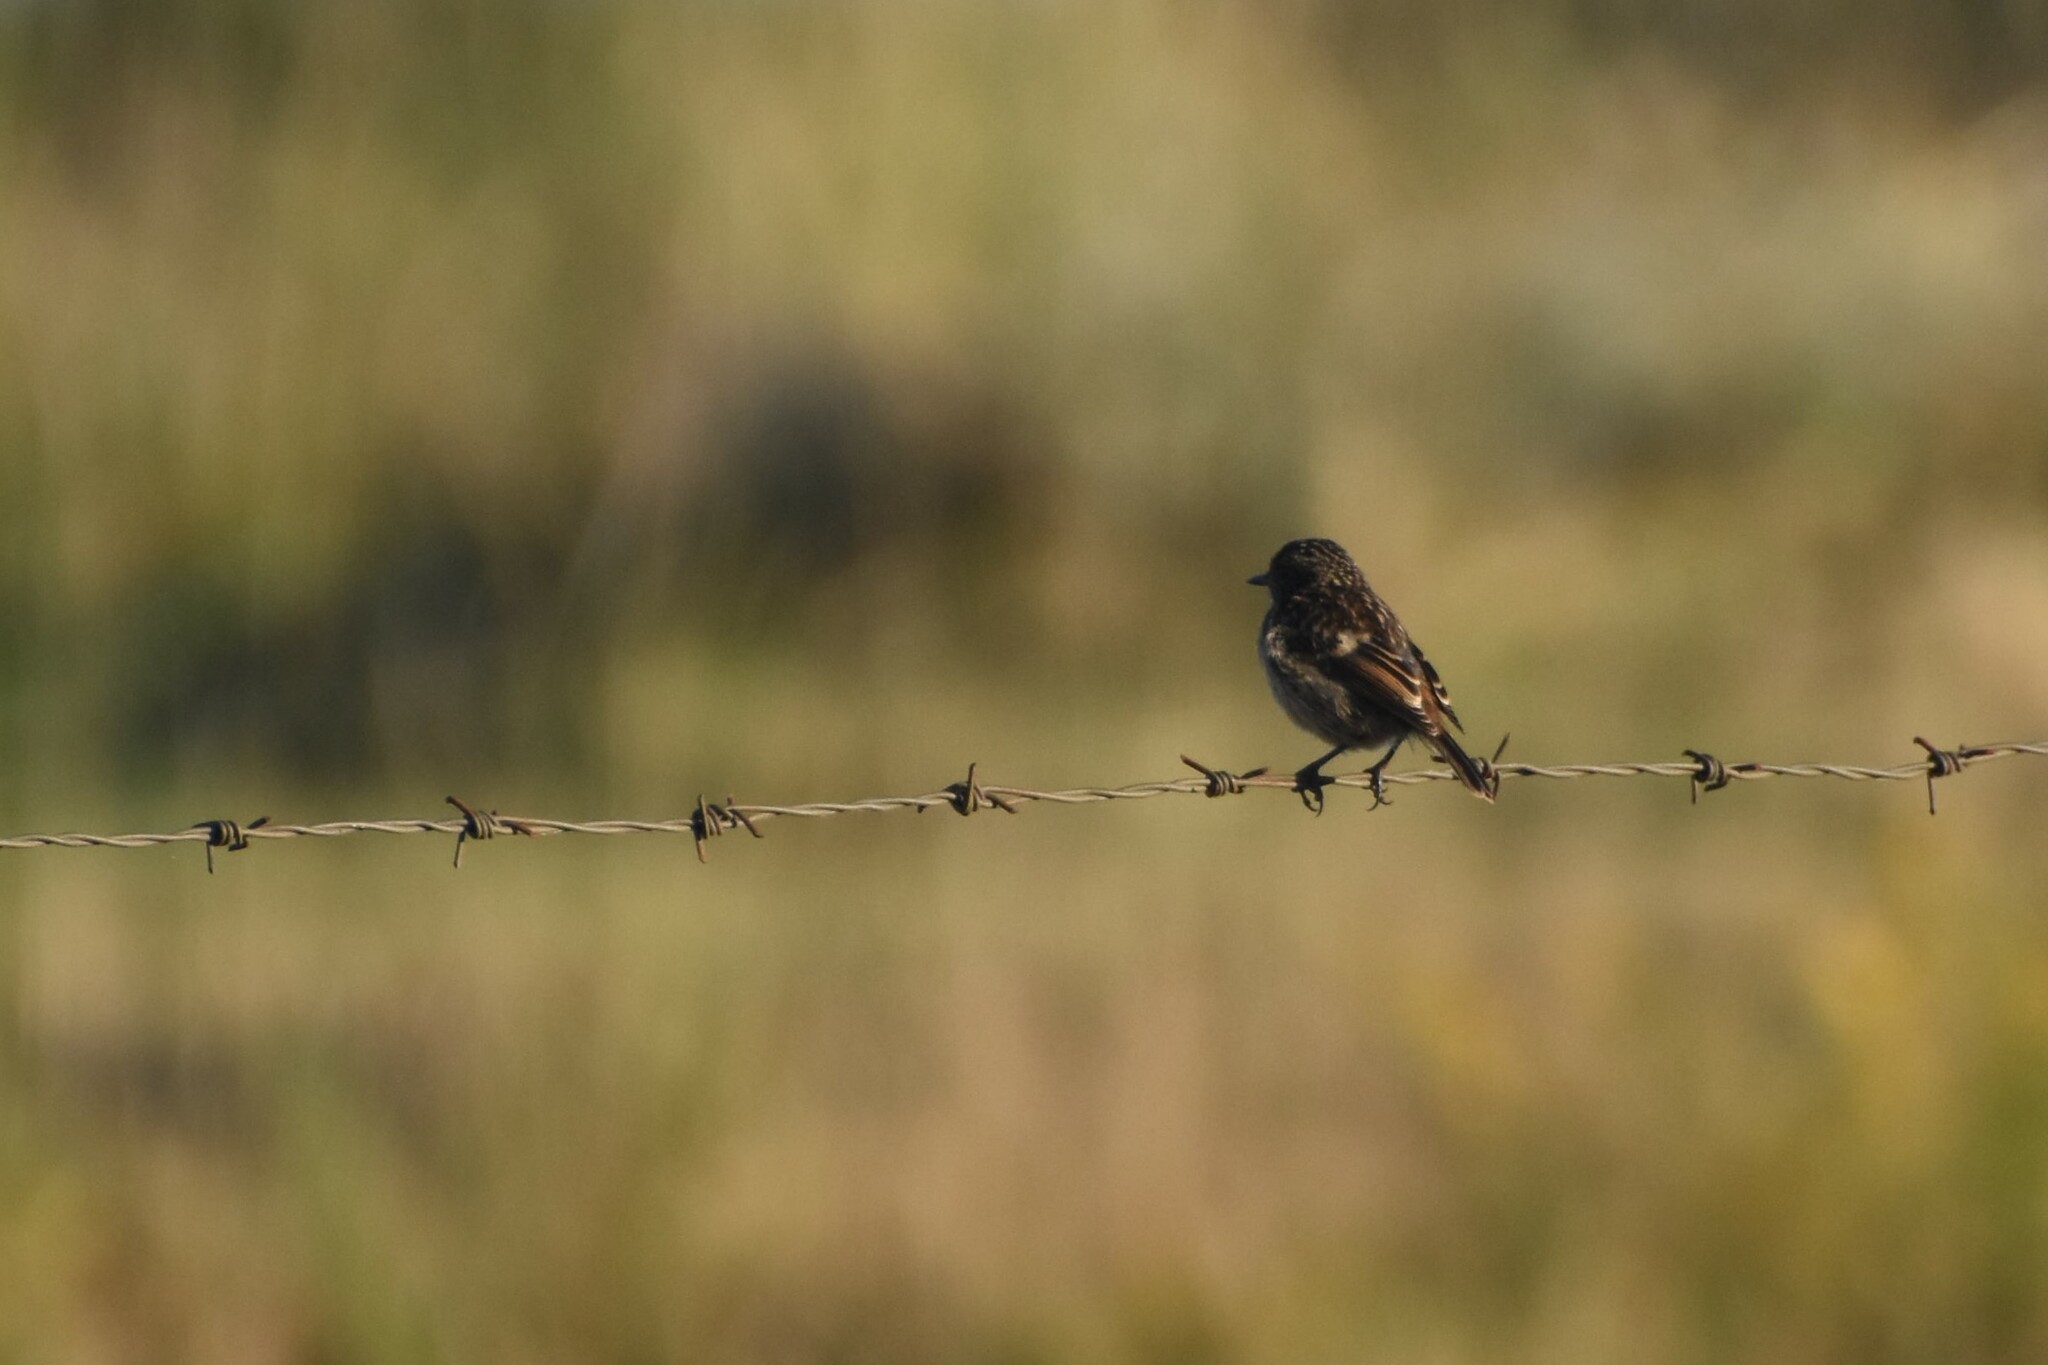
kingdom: Animalia
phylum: Chordata
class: Aves
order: Passeriformes
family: Muscicapidae
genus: Saxicola
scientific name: Saxicola rubicola
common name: European stonechat
